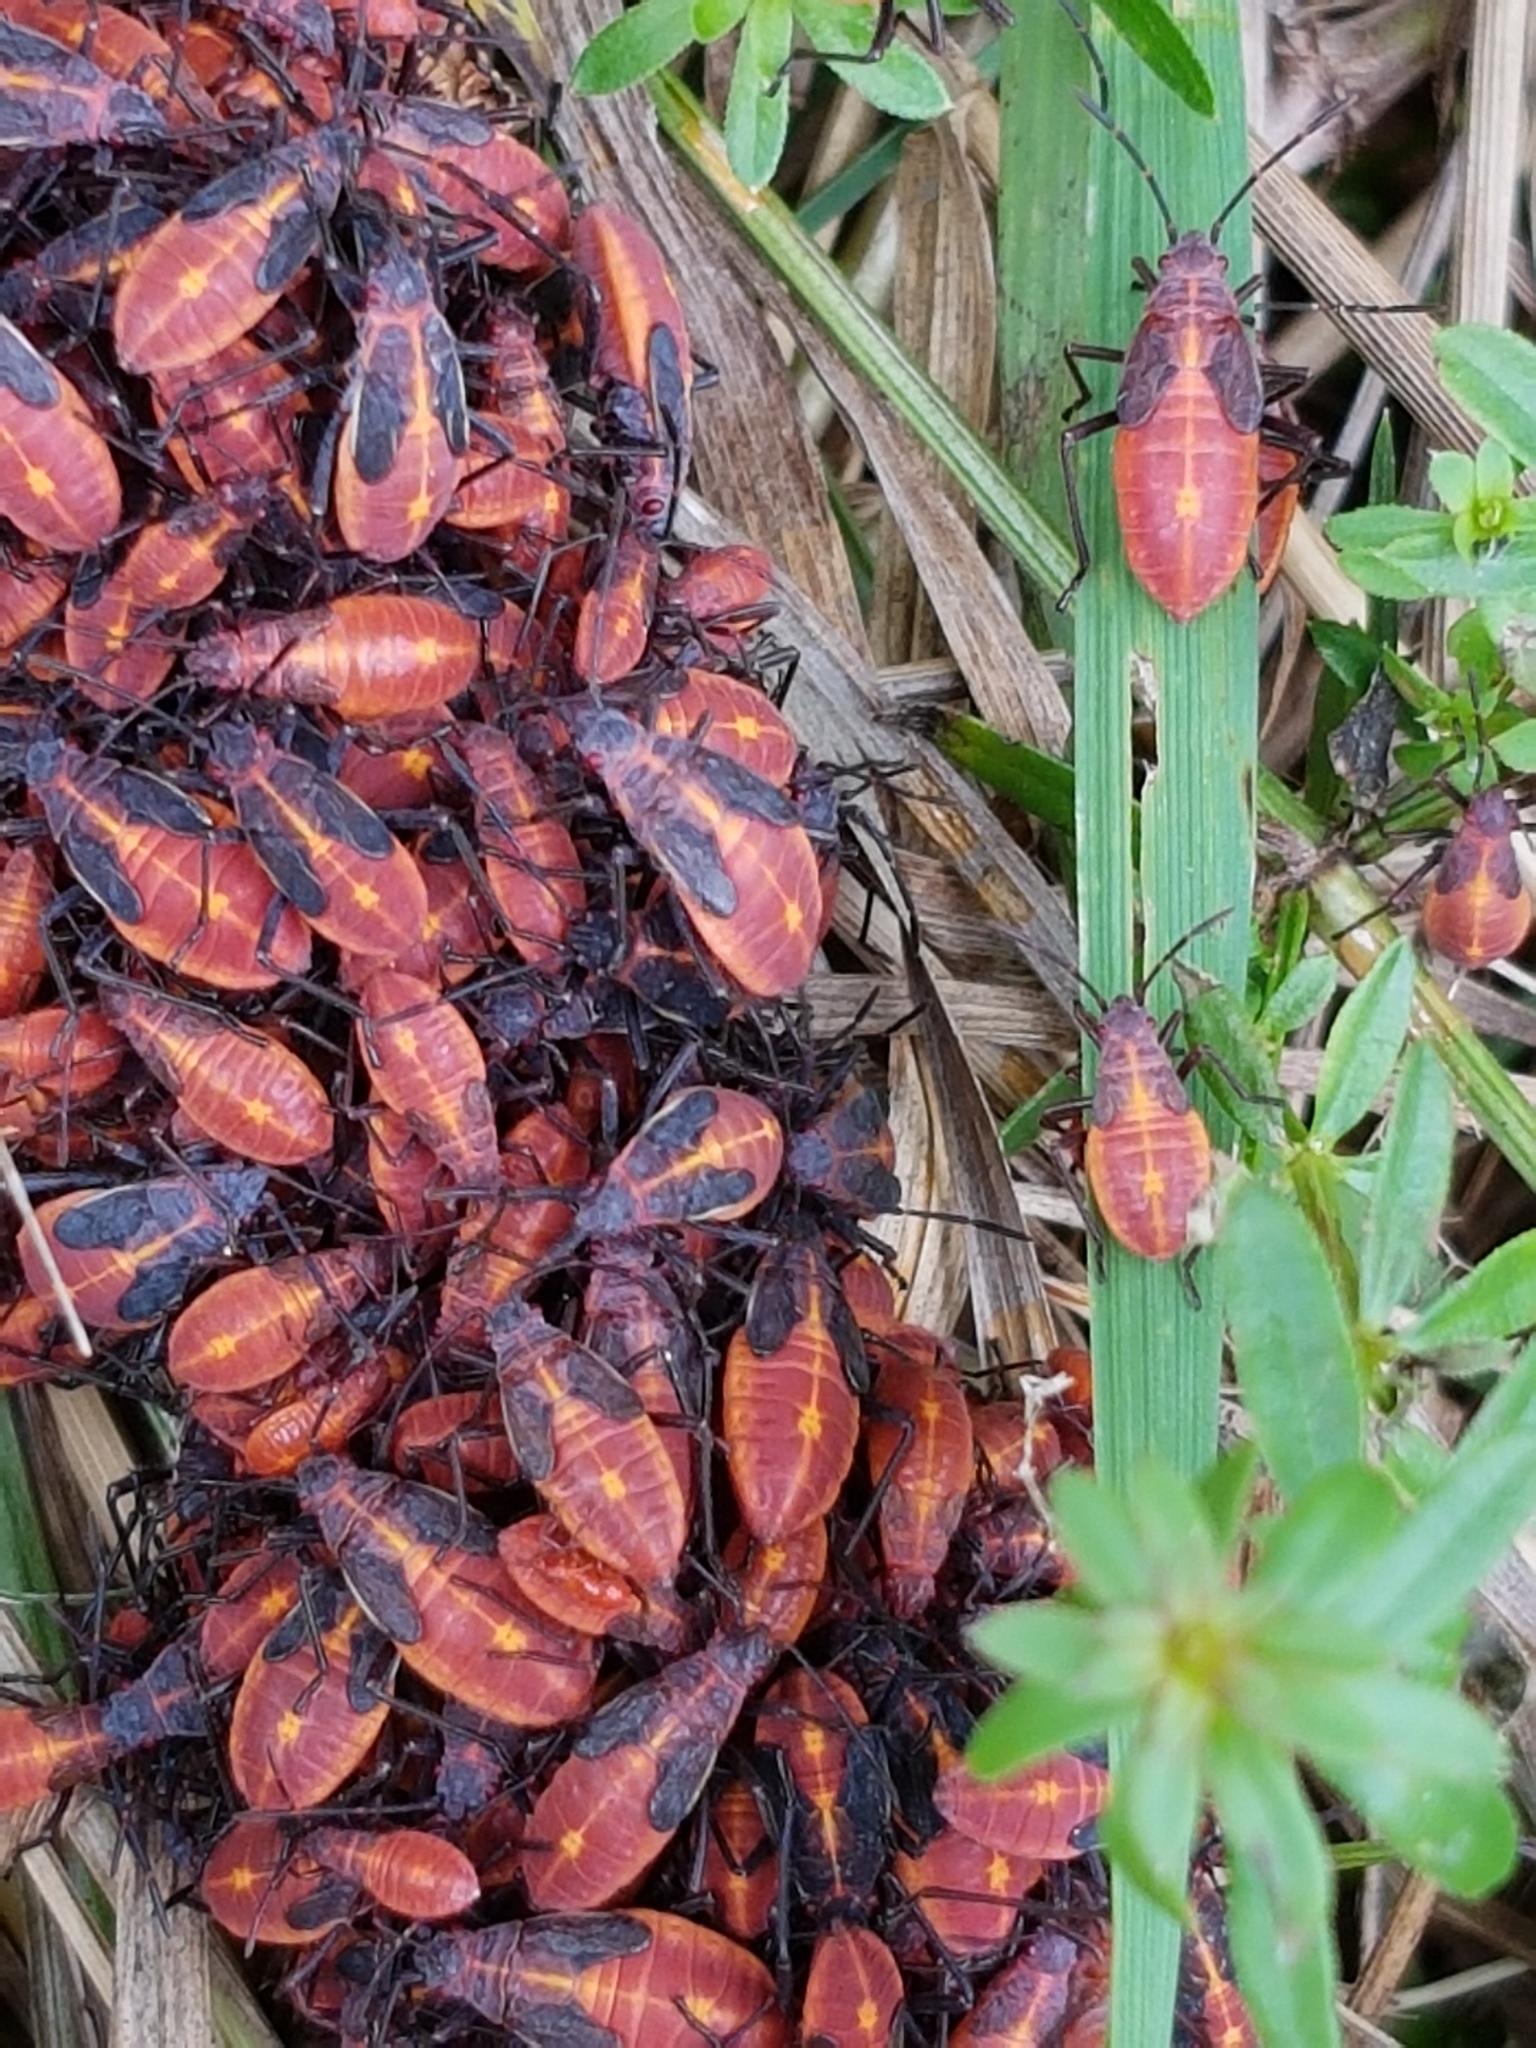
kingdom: Animalia
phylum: Arthropoda
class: Insecta
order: Hemiptera
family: Rhopalidae
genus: Boisea
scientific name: Boisea trivittata
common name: Boxelder bug
